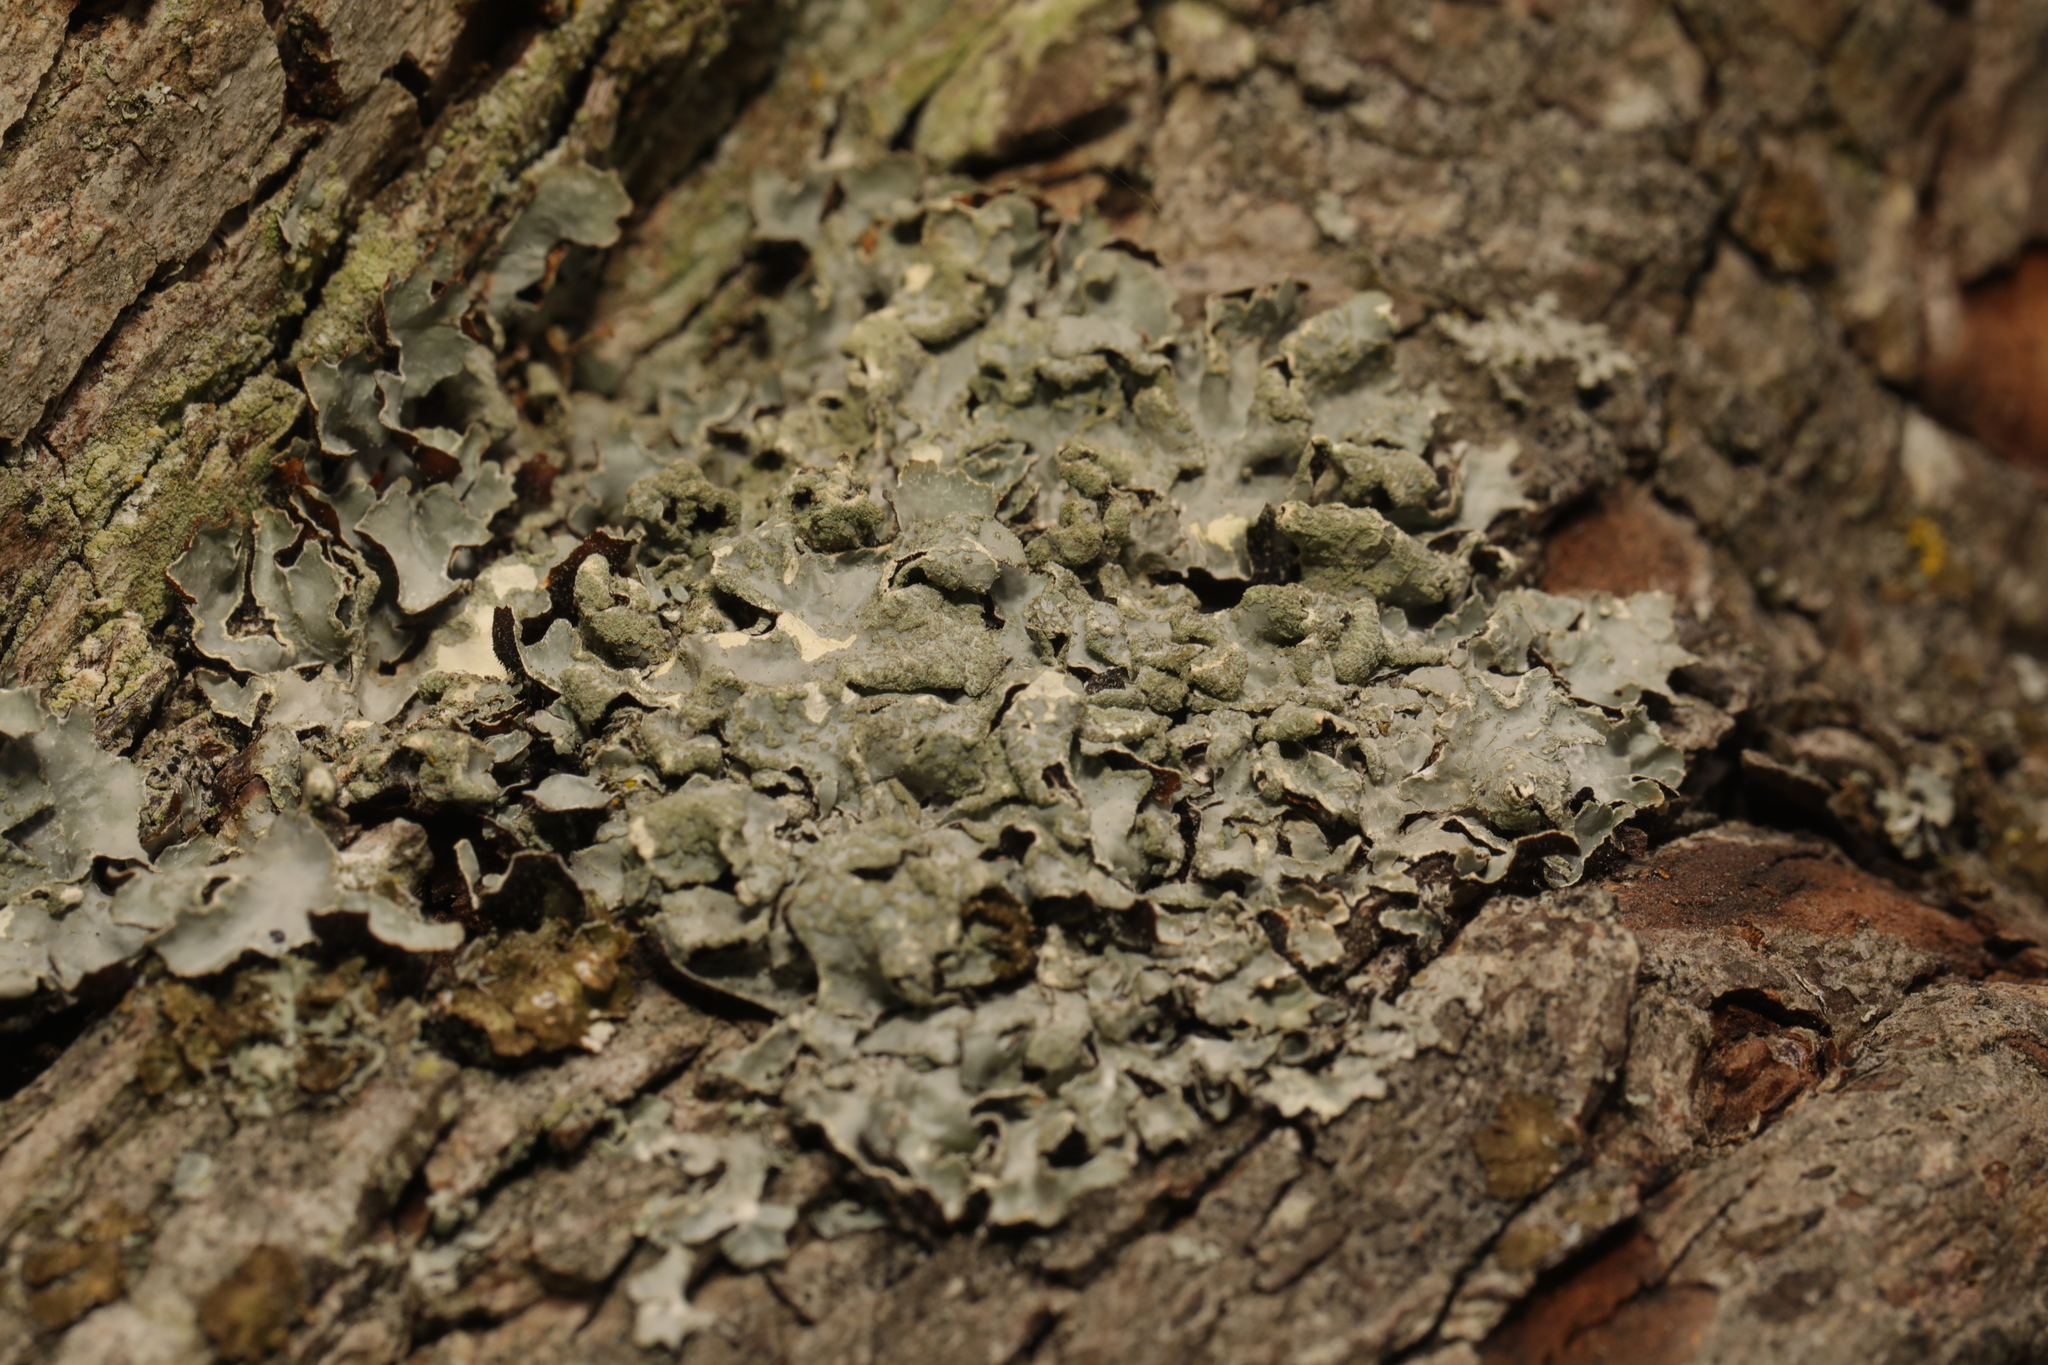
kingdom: Fungi
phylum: Ascomycota
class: Lecanoromycetes
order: Lecanorales
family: Parmeliaceae
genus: Parmelia
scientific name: Parmelia sulcata
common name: Netted shield lichen
